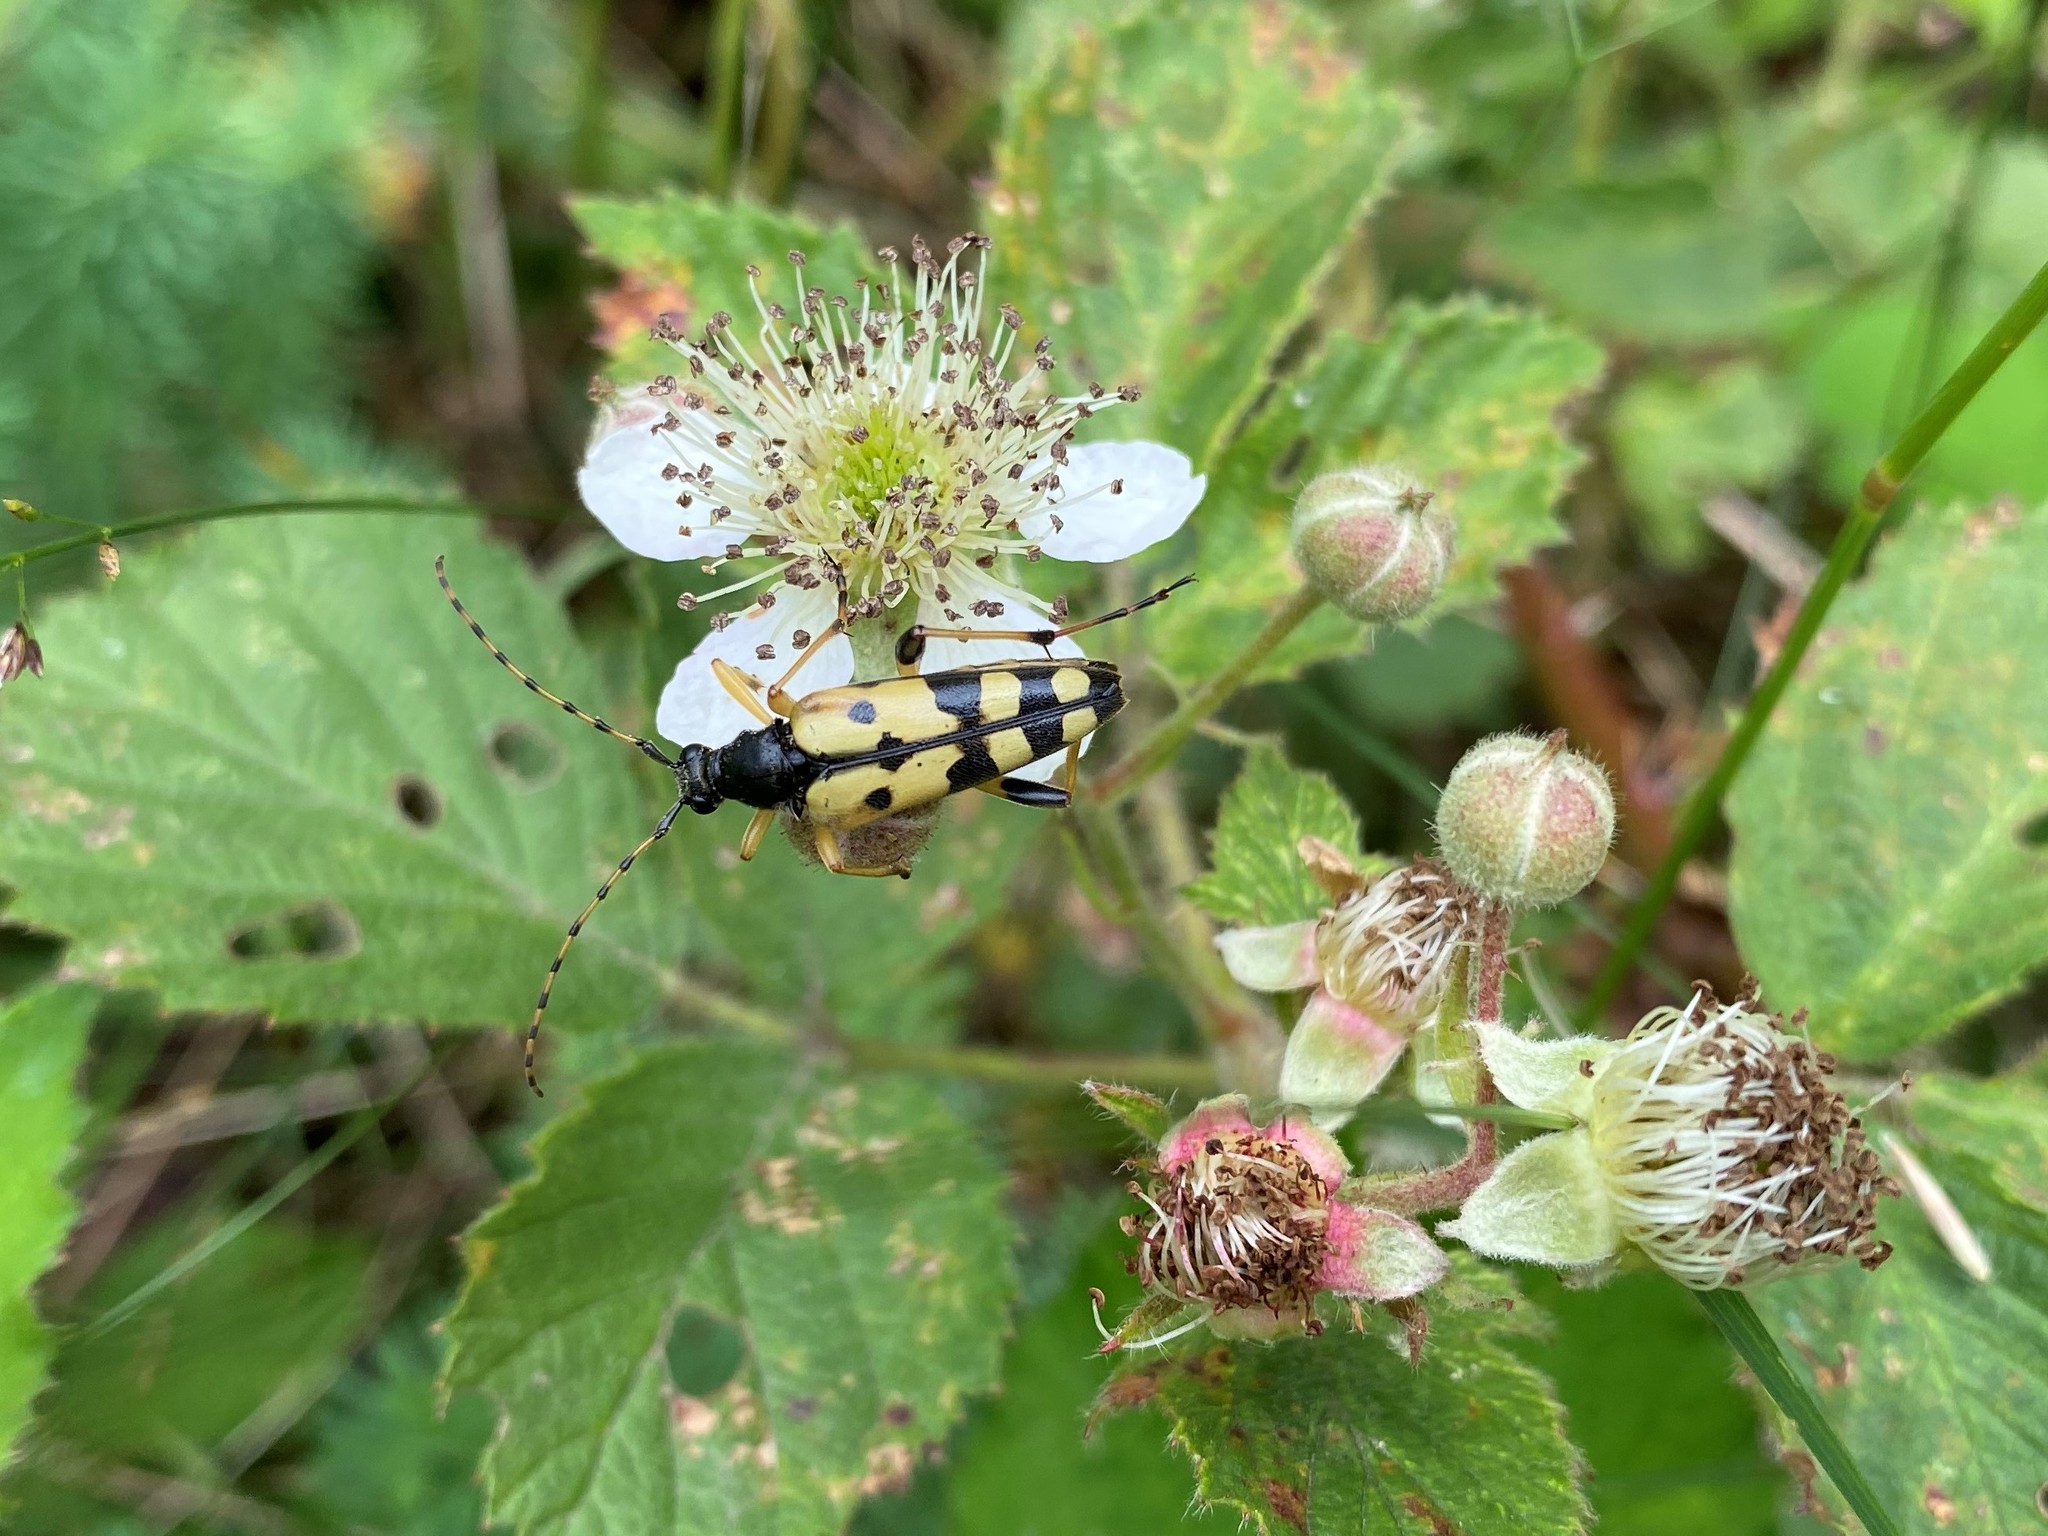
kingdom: Animalia
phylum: Arthropoda
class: Insecta
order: Coleoptera
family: Cerambycidae
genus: Rutpela
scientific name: Rutpela maculata
